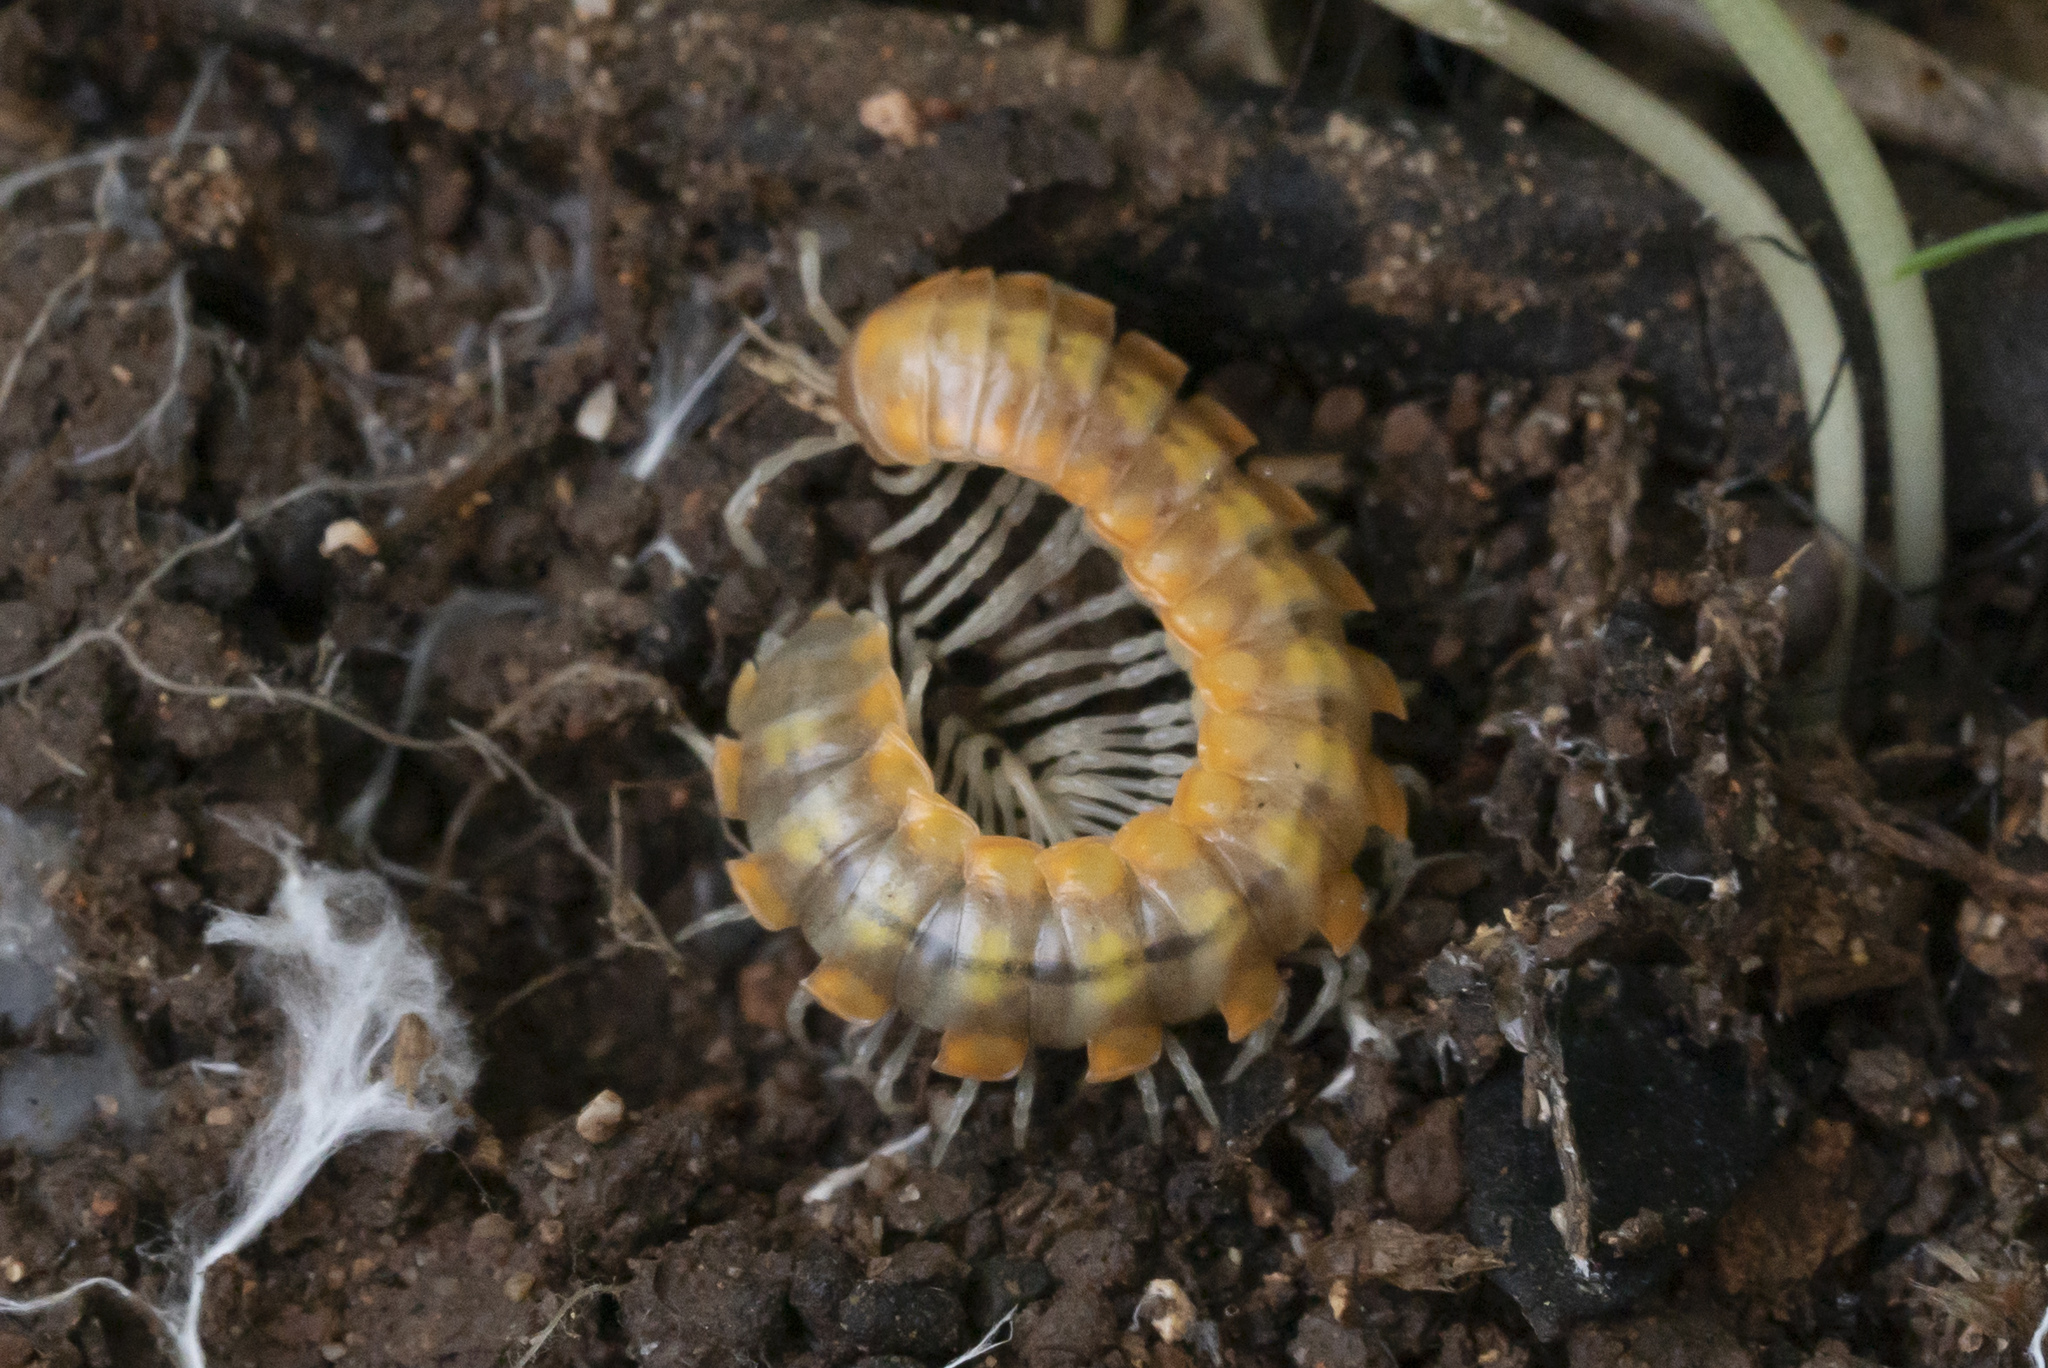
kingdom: Animalia
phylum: Arthropoda
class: Diplopoda
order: Polydesmida
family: Xystodesmidae
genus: Melaphe
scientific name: Melaphe vestita
